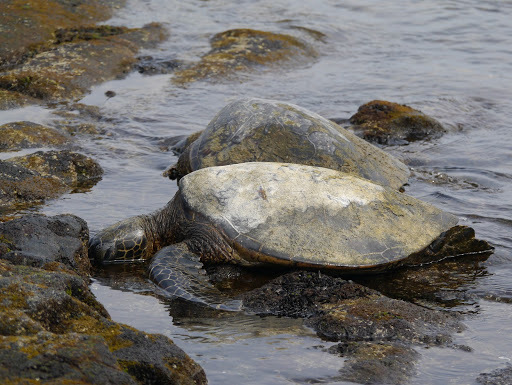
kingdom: Animalia
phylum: Chordata
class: Testudines
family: Cheloniidae
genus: Chelonia
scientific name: Chelonia mydas
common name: Green turtle
